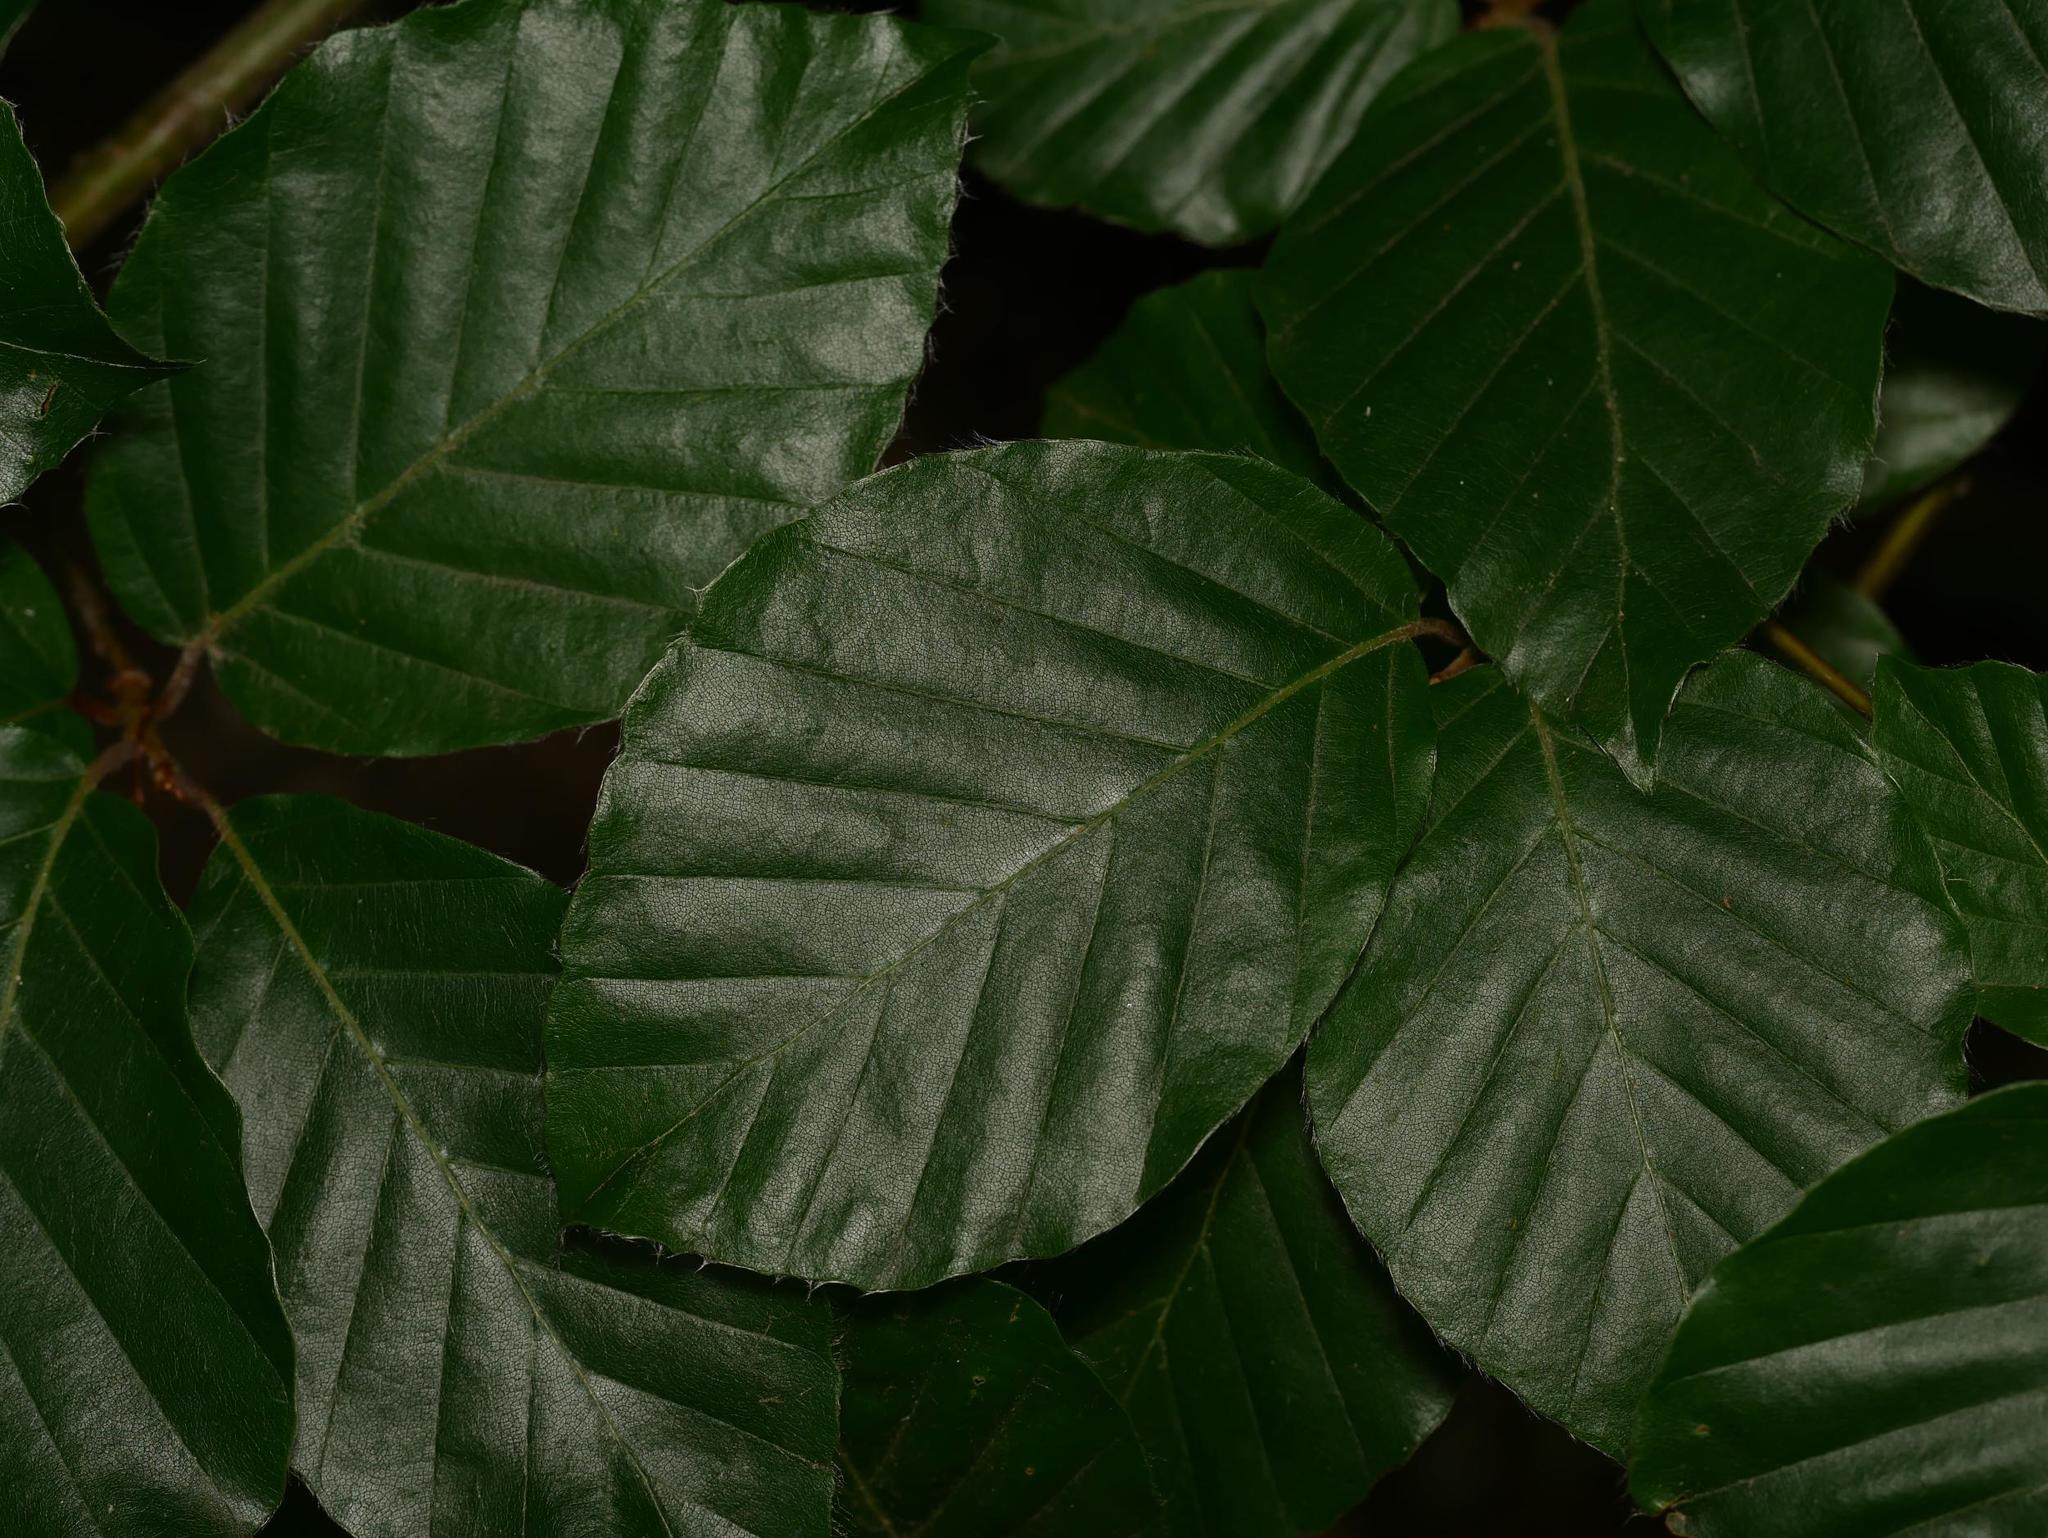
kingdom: Plantae
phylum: Tracheophyta
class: Magnoliopsida
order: Fagales
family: Fagaceae
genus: Fagus
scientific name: Fagus sylvatica
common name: Beech
